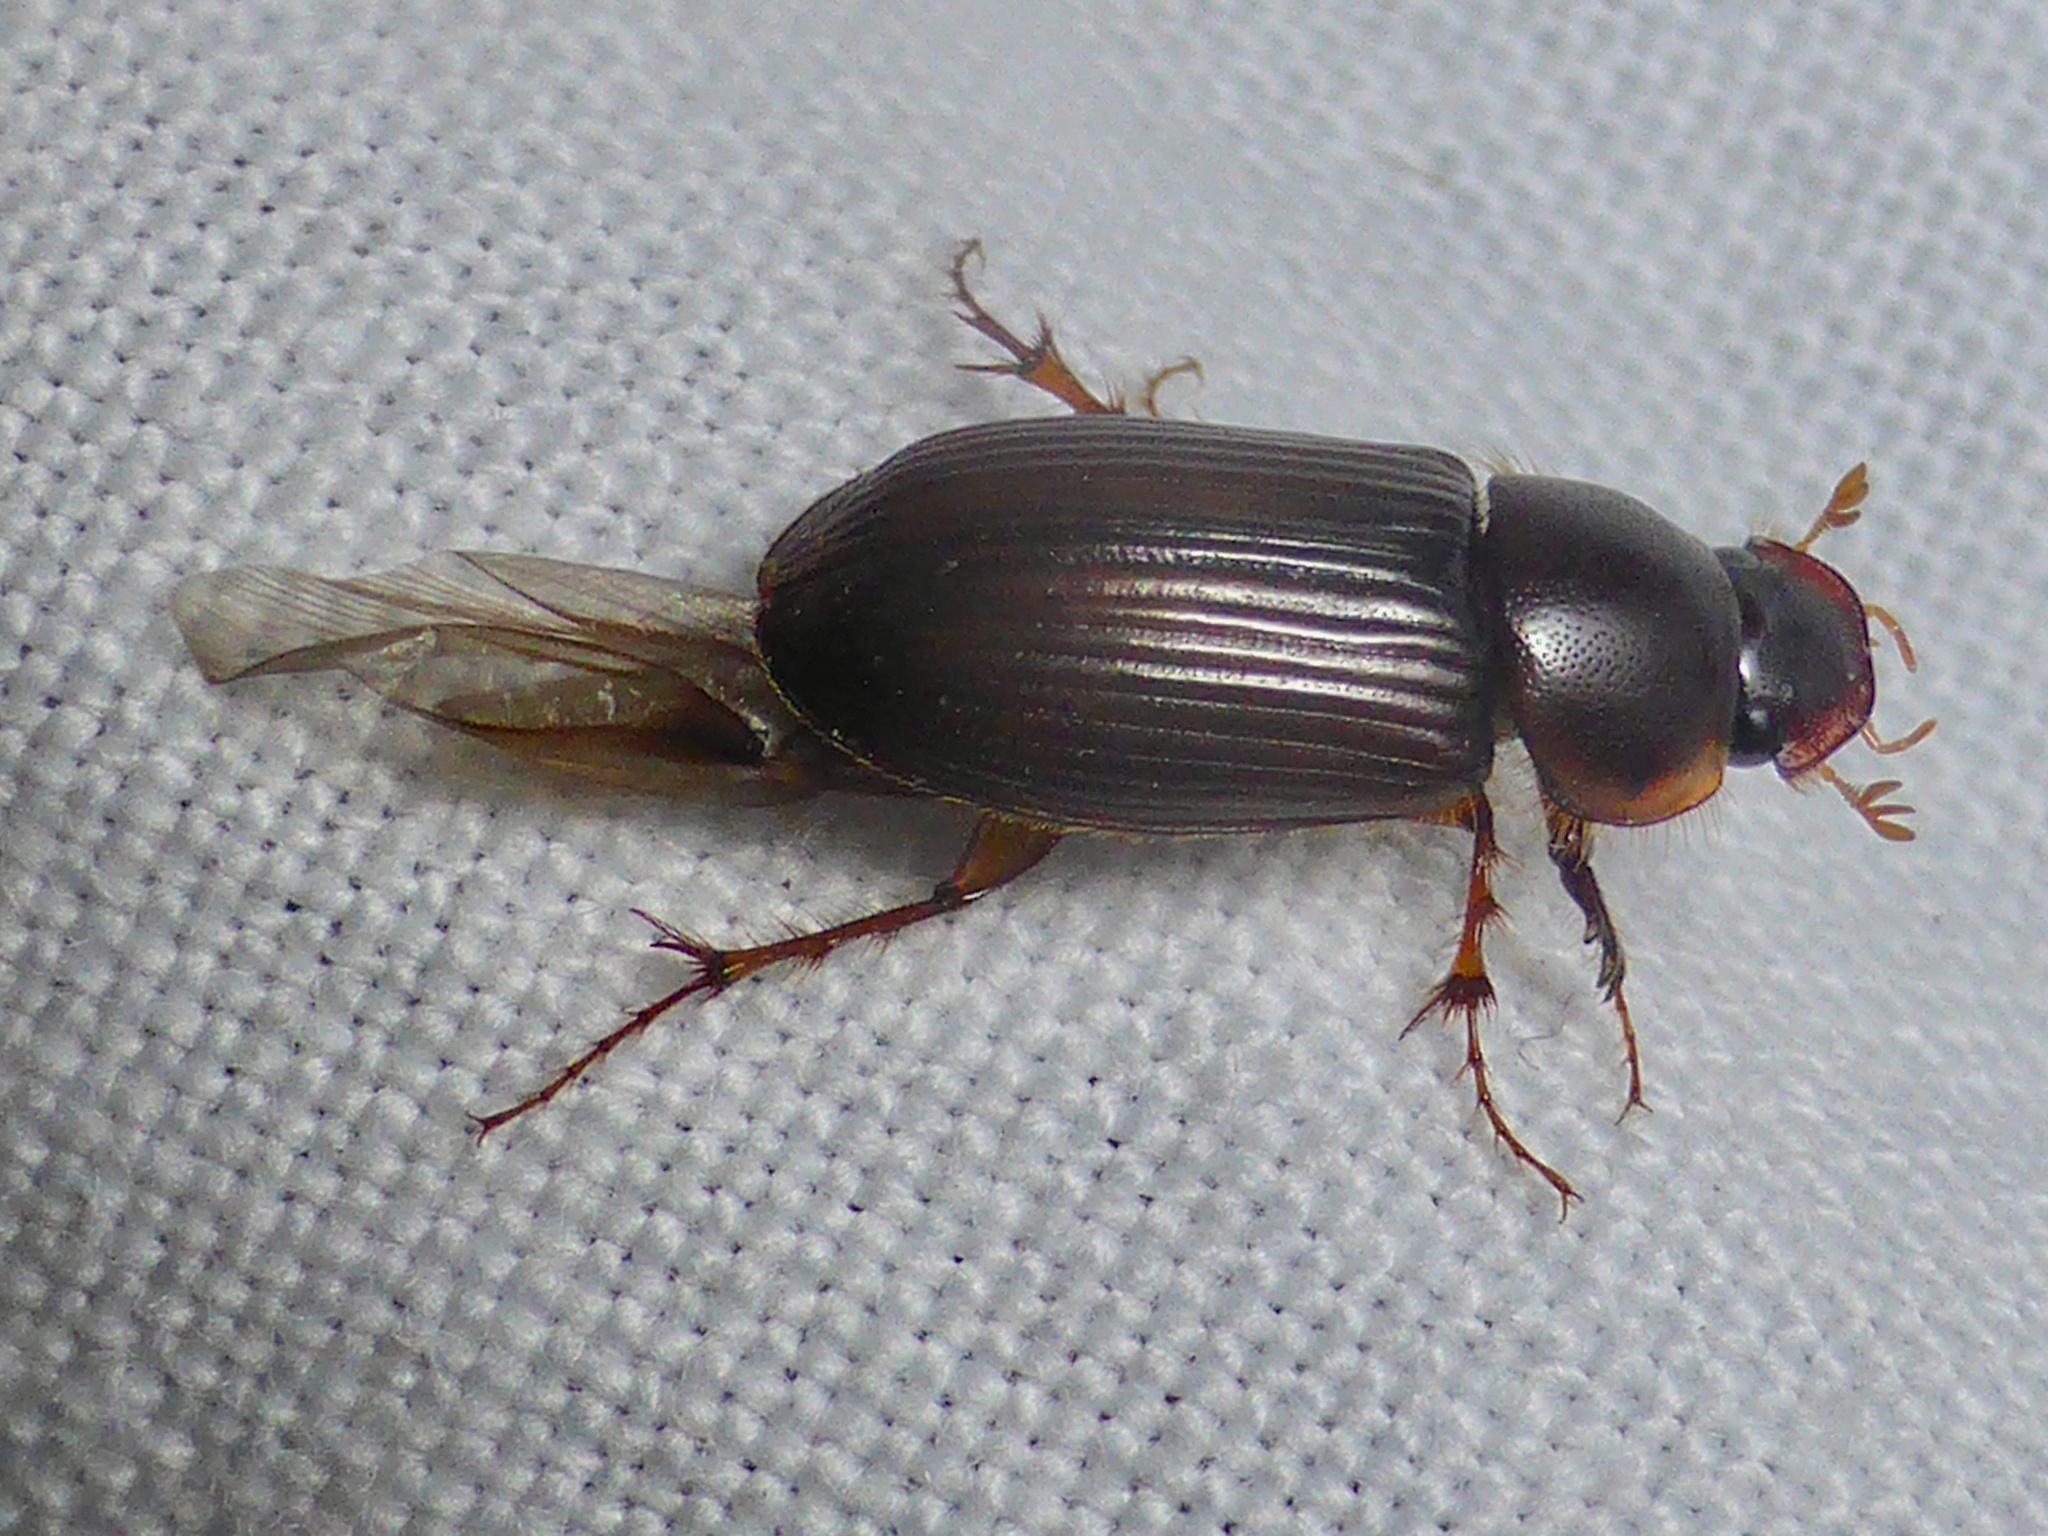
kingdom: Animalia
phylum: Arthropoda
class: Insecta
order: Coleoptera
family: Scarabaeidae
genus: Acrossidius
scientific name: Acrossidius tasmaniae
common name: Black-headed pasture cockchafer
